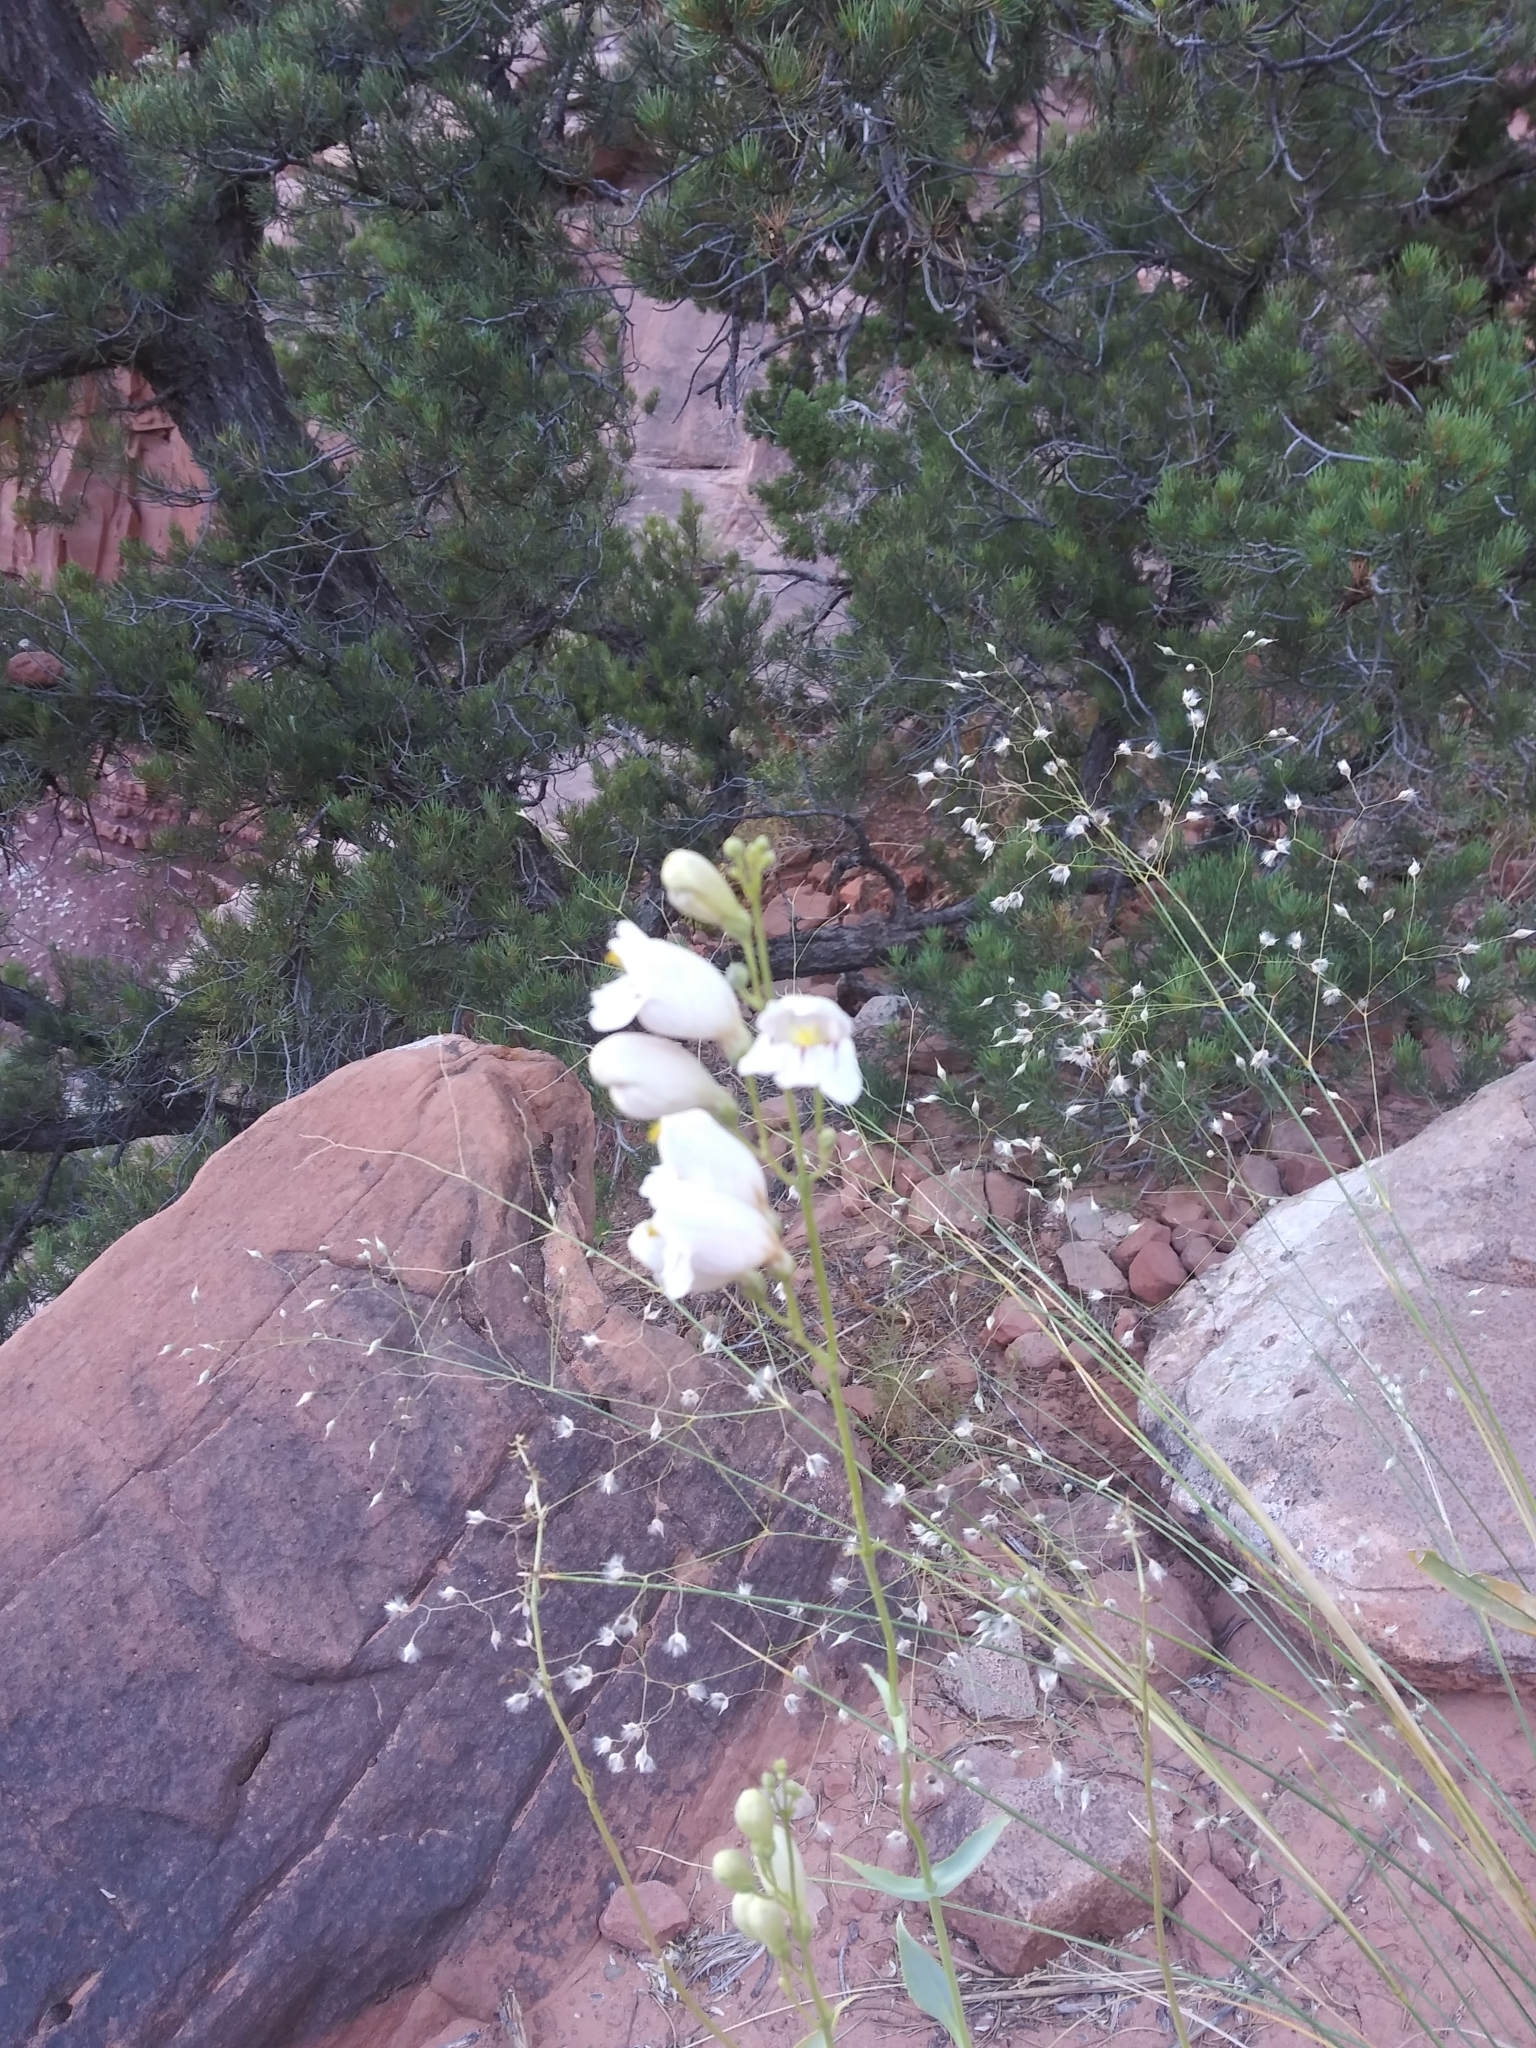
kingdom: Plantae
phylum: Tracheophyta
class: Magnoliopsida
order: Lamiales
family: Plantaginaceae
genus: Penstemon
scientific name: Penstemon palmeri
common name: Palmer penstemon
